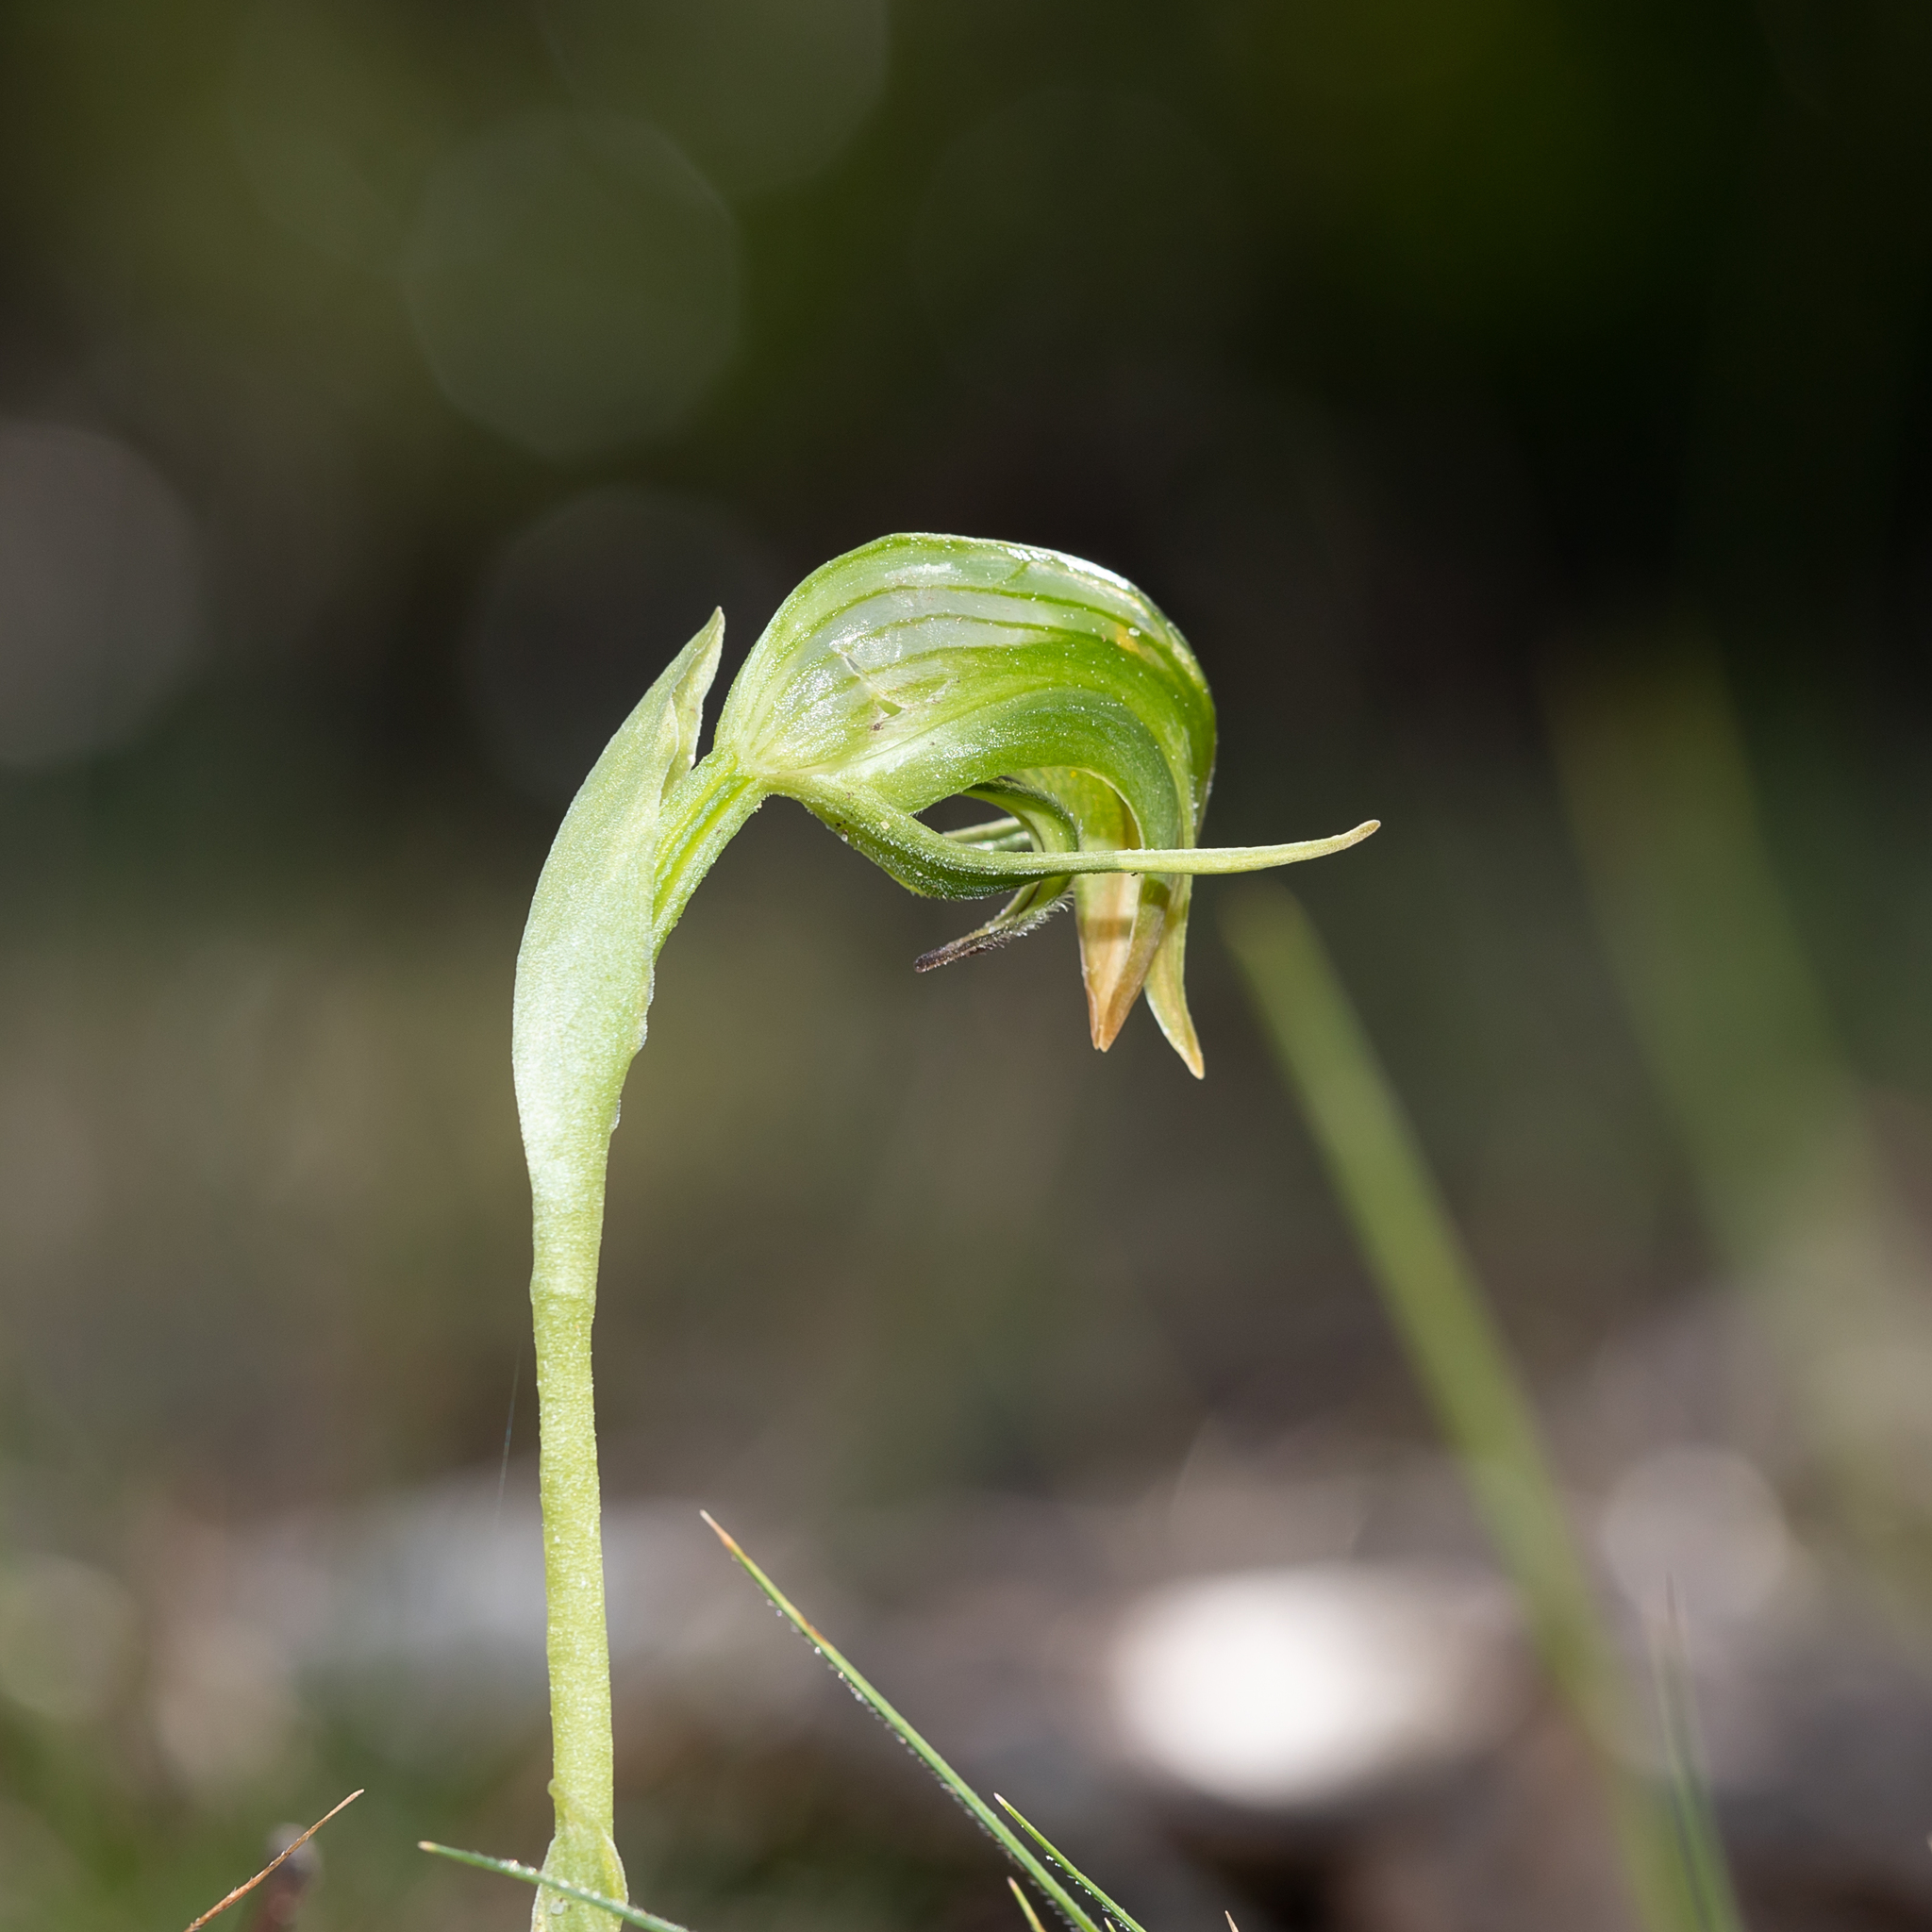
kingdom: Plantae
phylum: Tracheophyta
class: Liliopsida
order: Asparagales
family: Orchidaceae
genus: Pterostylis
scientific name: Pterostylis nutans
